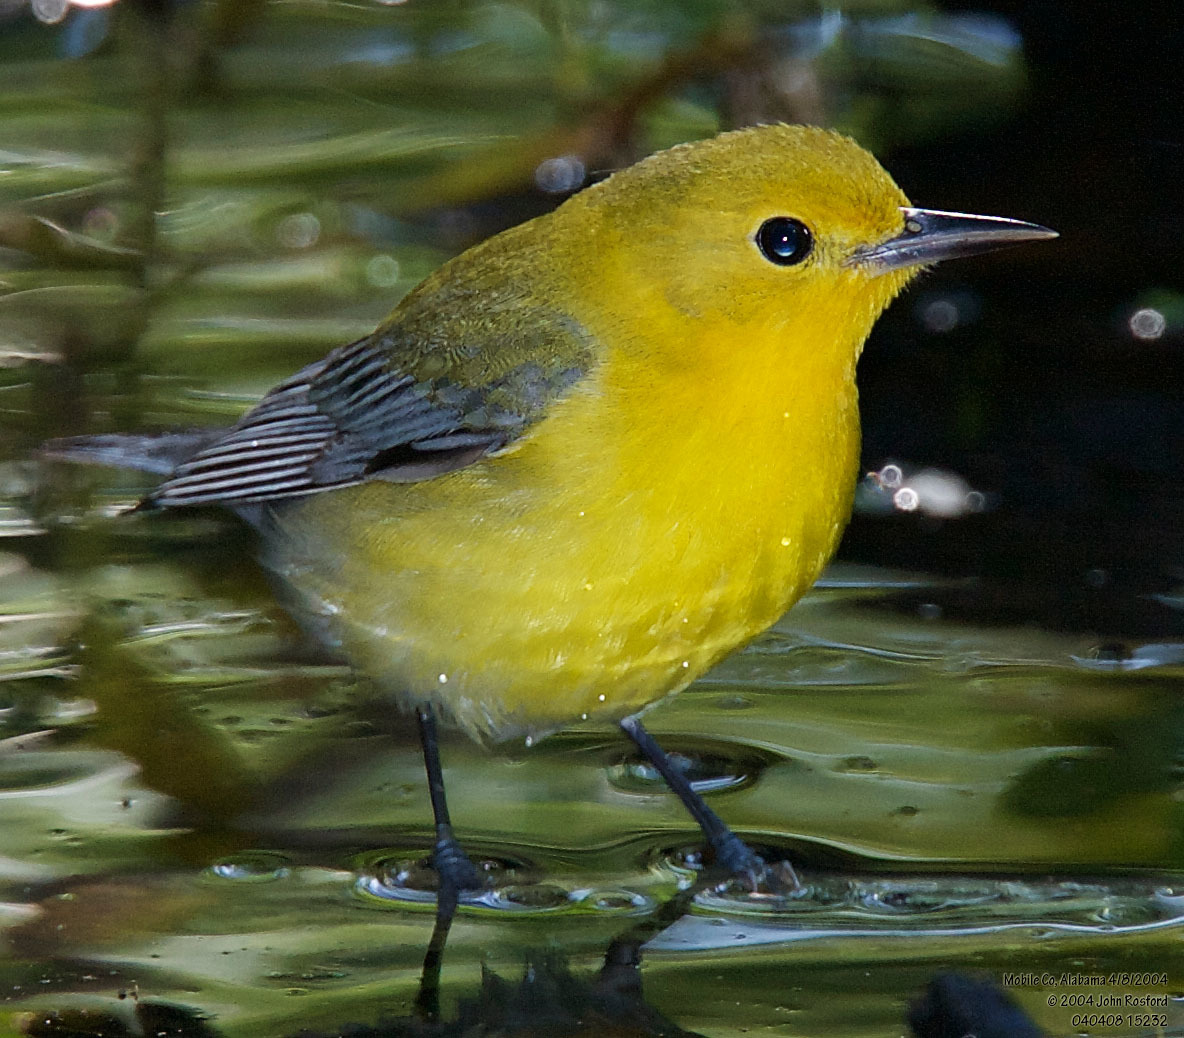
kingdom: Animalia
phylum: Chordata
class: Aves
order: Passeriformes
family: Parulidae
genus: Protonotaria
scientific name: Protonotaria citrea
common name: Prothonotary warbler
